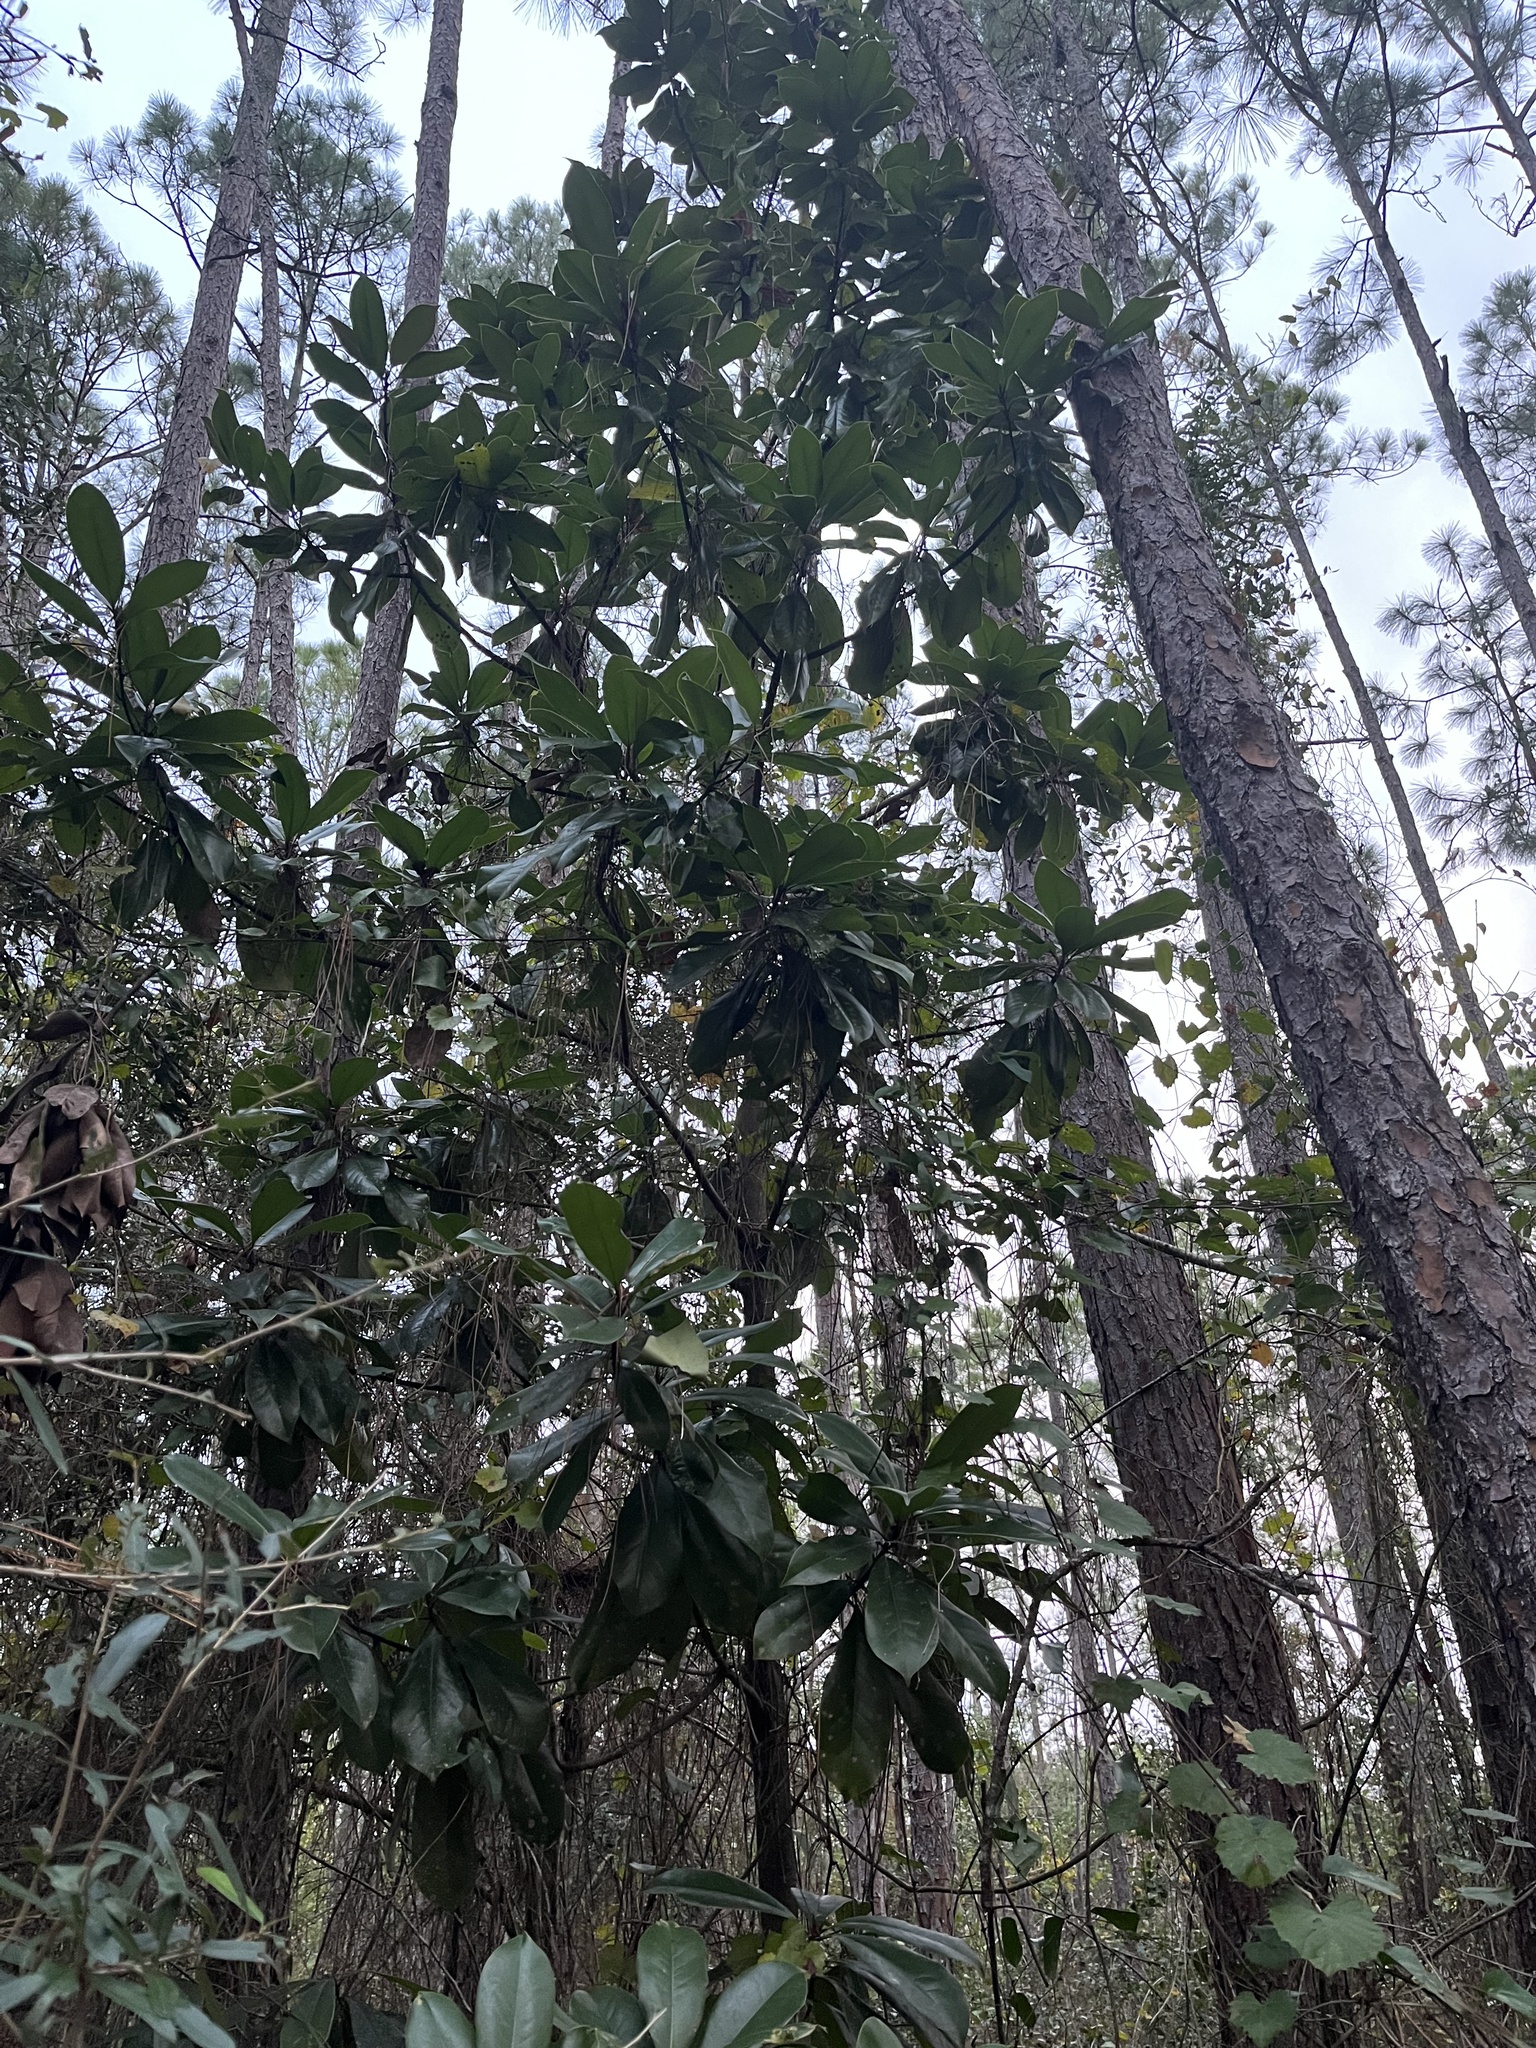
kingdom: Plantae
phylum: Tracheophyta
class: Magnoliopsida
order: Magnoliales
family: Magnoliaceae
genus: Magnolia
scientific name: Magnolia grandiflora
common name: Southern magnolia
